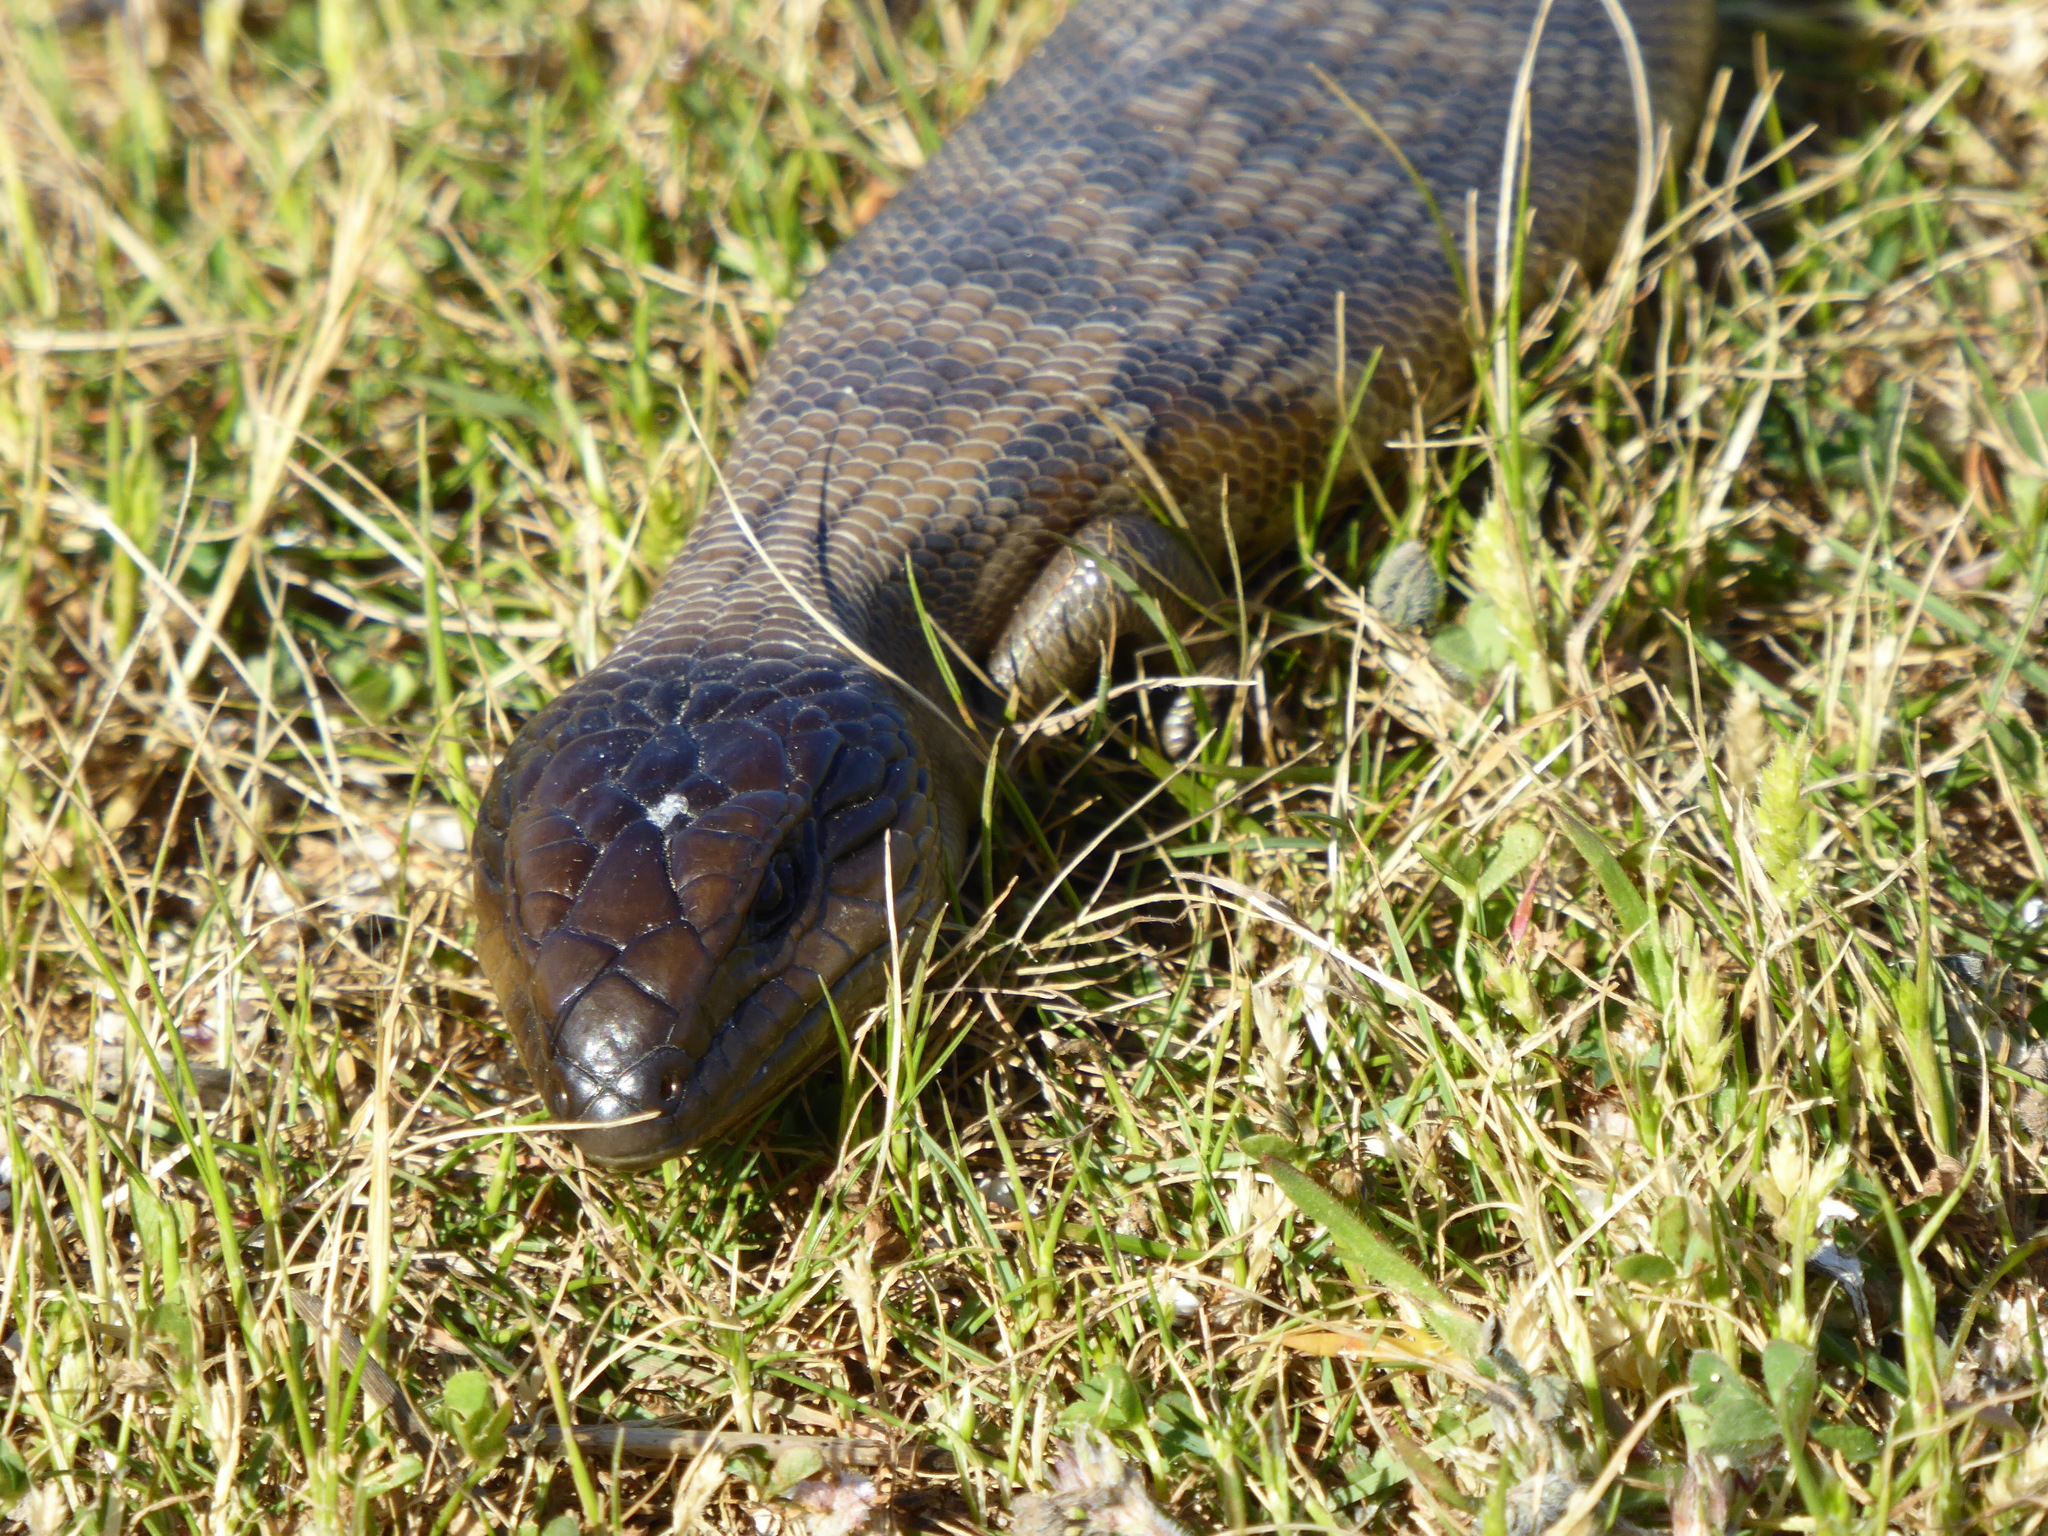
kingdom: Animalia
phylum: Chordata
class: Squamata
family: Scincidae
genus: Tiliqua
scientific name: Tiliqua scincoides
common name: Common bluetongue
